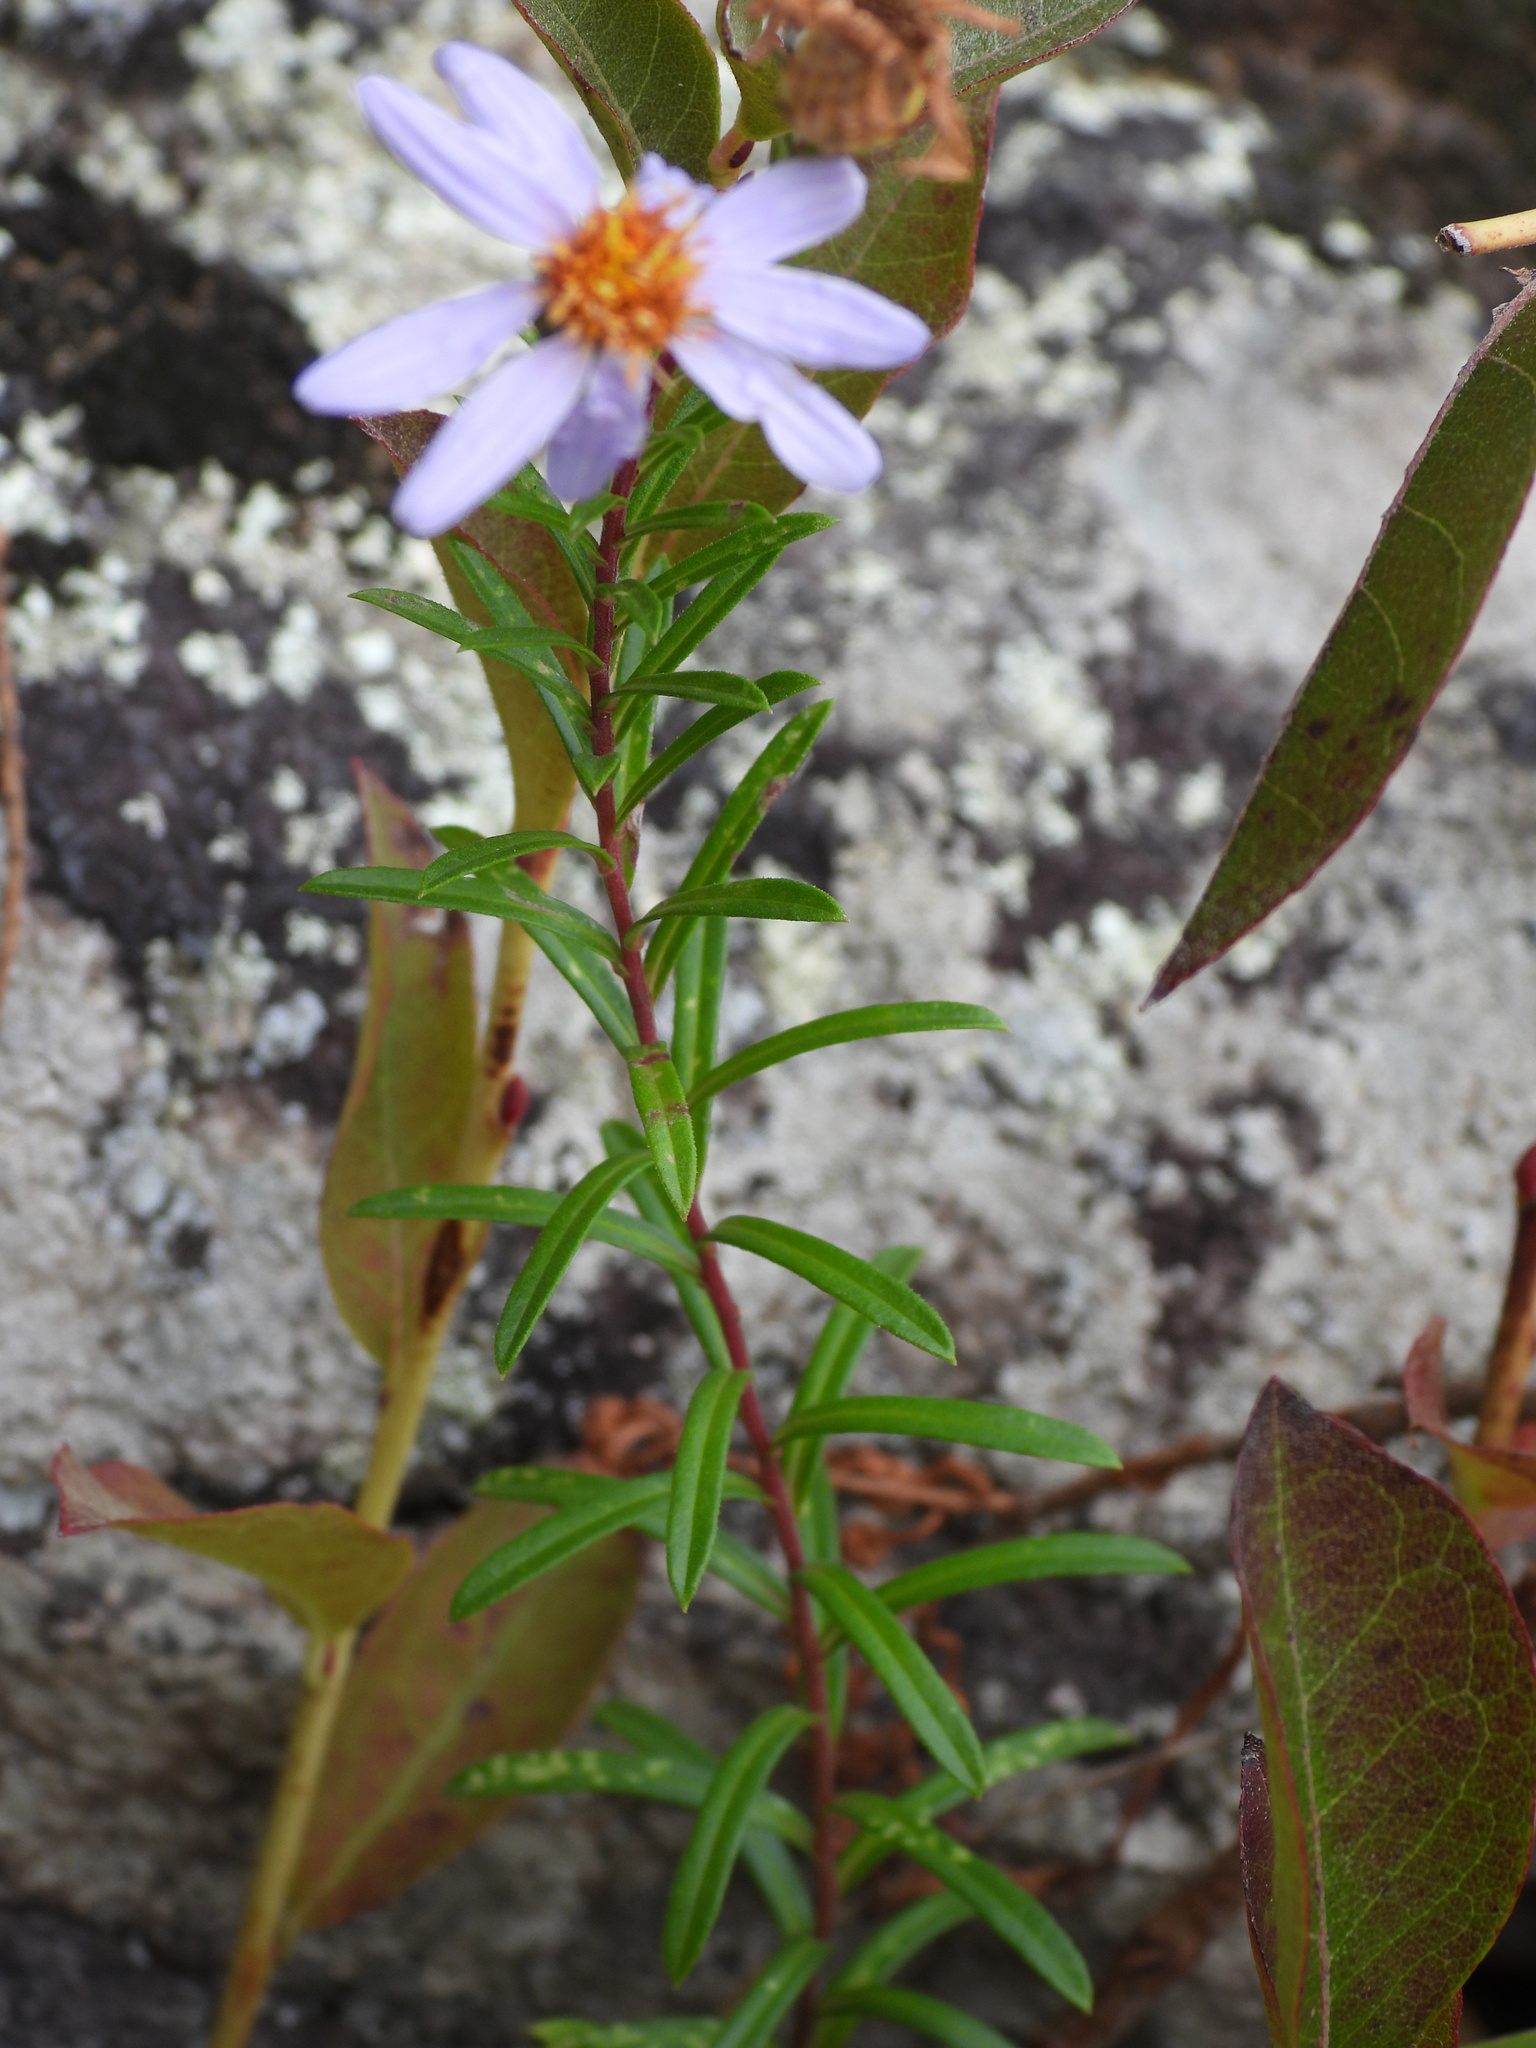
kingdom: Plantae
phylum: Tracheophyta
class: Magnoliopsida
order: Asterales
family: Asteraceae
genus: Ionactis
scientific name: Ionactis linariifolia
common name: Flax-leaf aster
